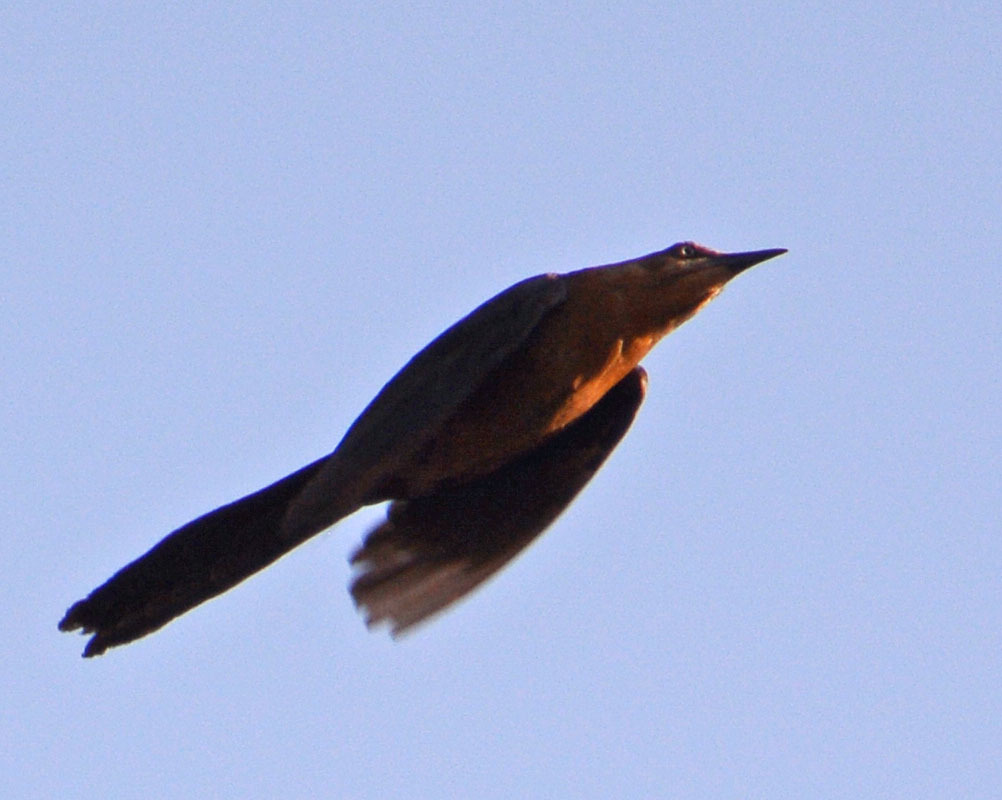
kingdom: Animalia
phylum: Chordata
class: Aves
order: Passeriformes
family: Icteridae
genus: Quiscalus
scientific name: Quiscalus mexicanus
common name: Great-tailed grackle
